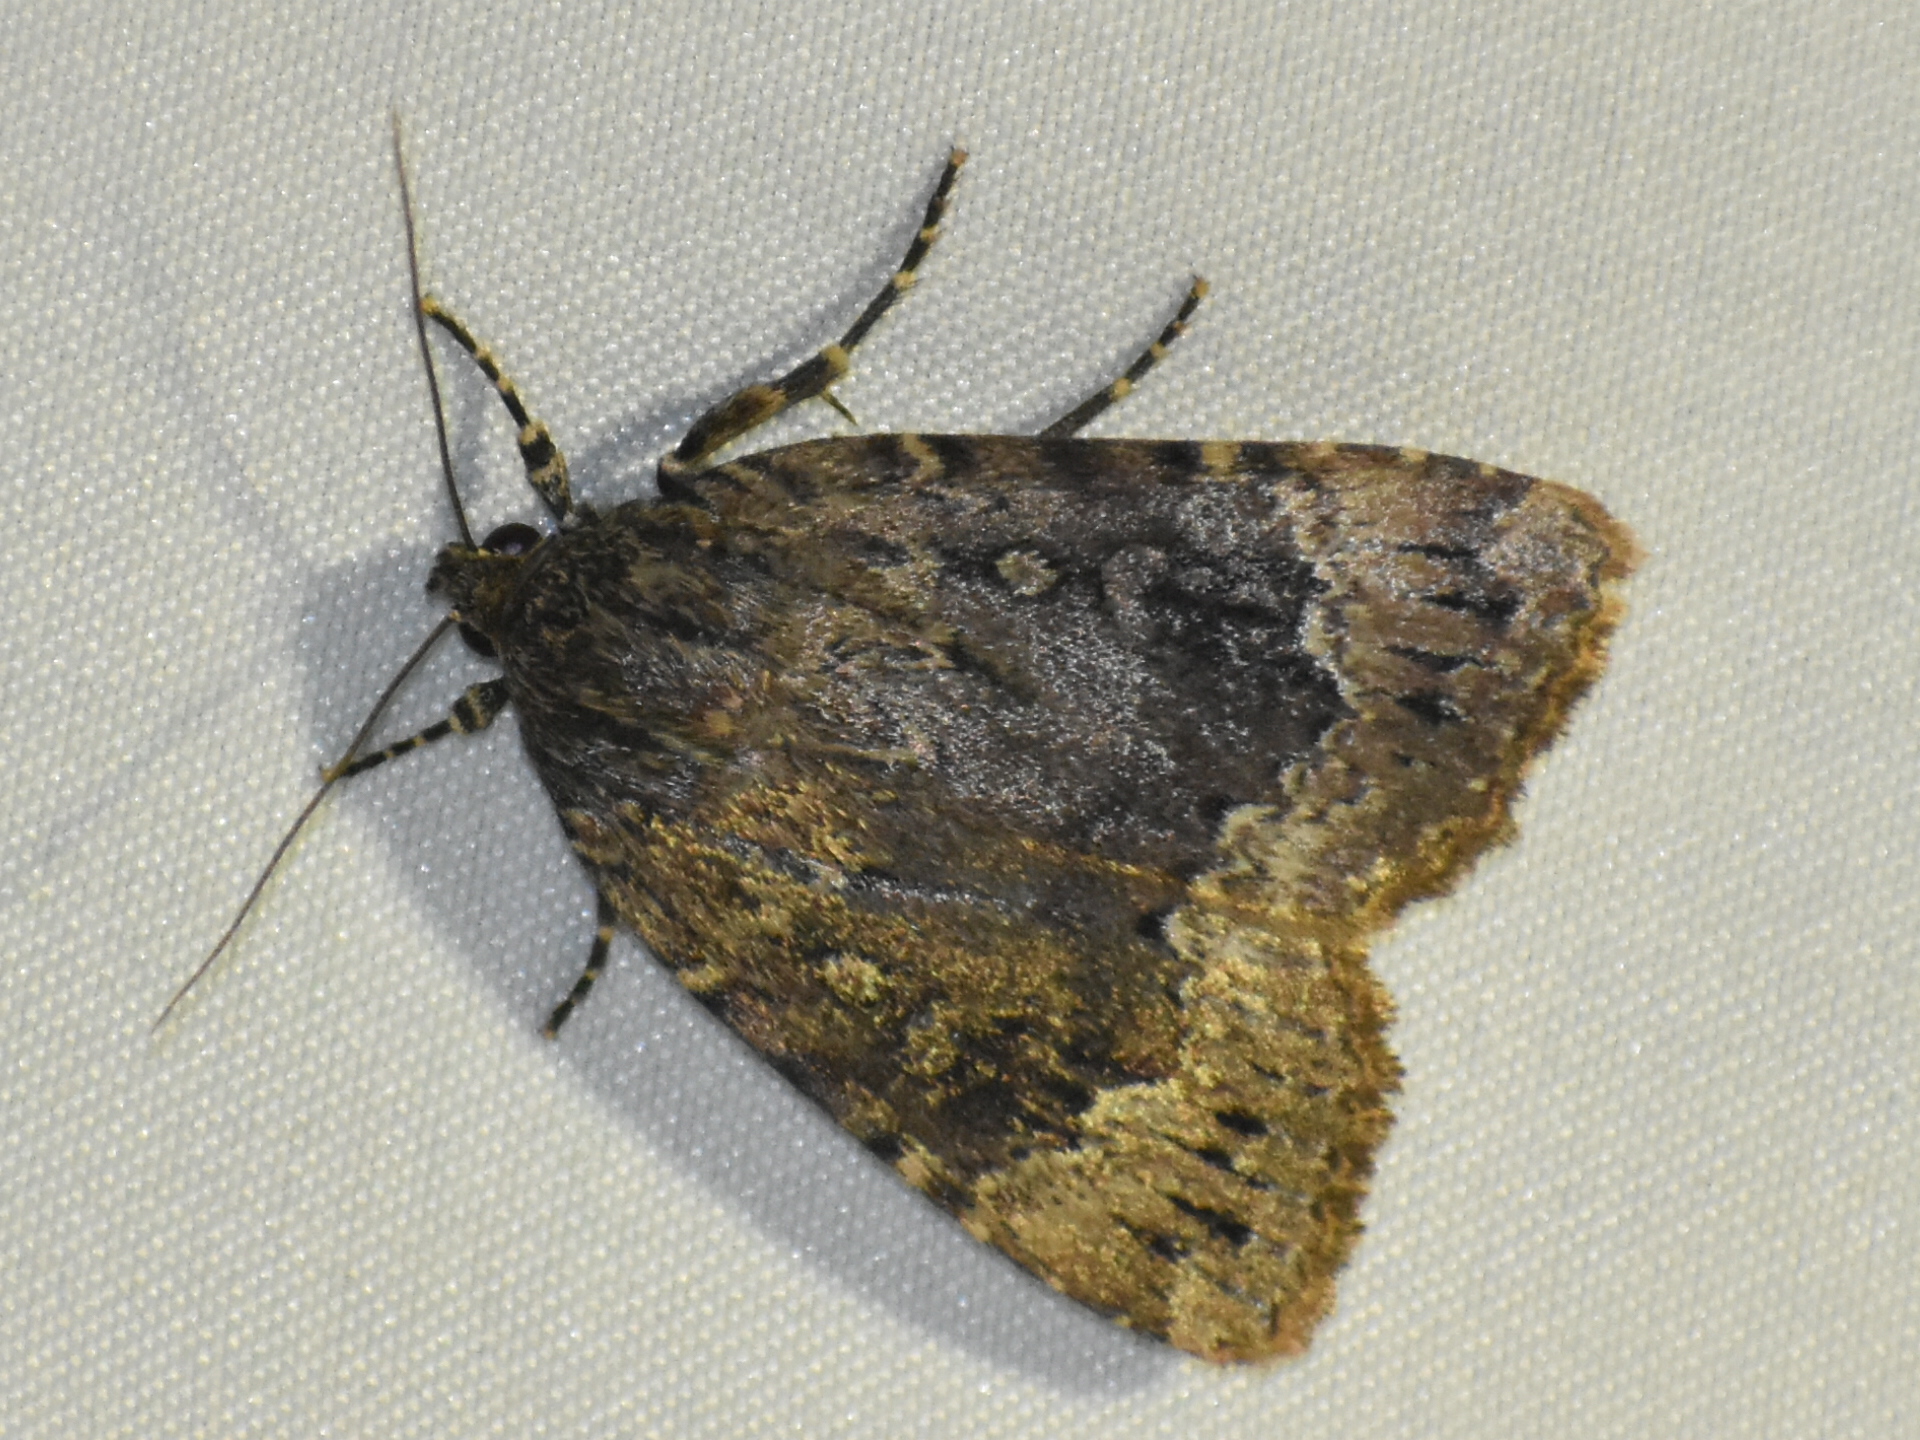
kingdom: Animalia
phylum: Arthropoda
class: Insecta
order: Lepidoptera
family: Noctuidae
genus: Amphipyra
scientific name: Amphipyra pyramidoides
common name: American copper underwing
